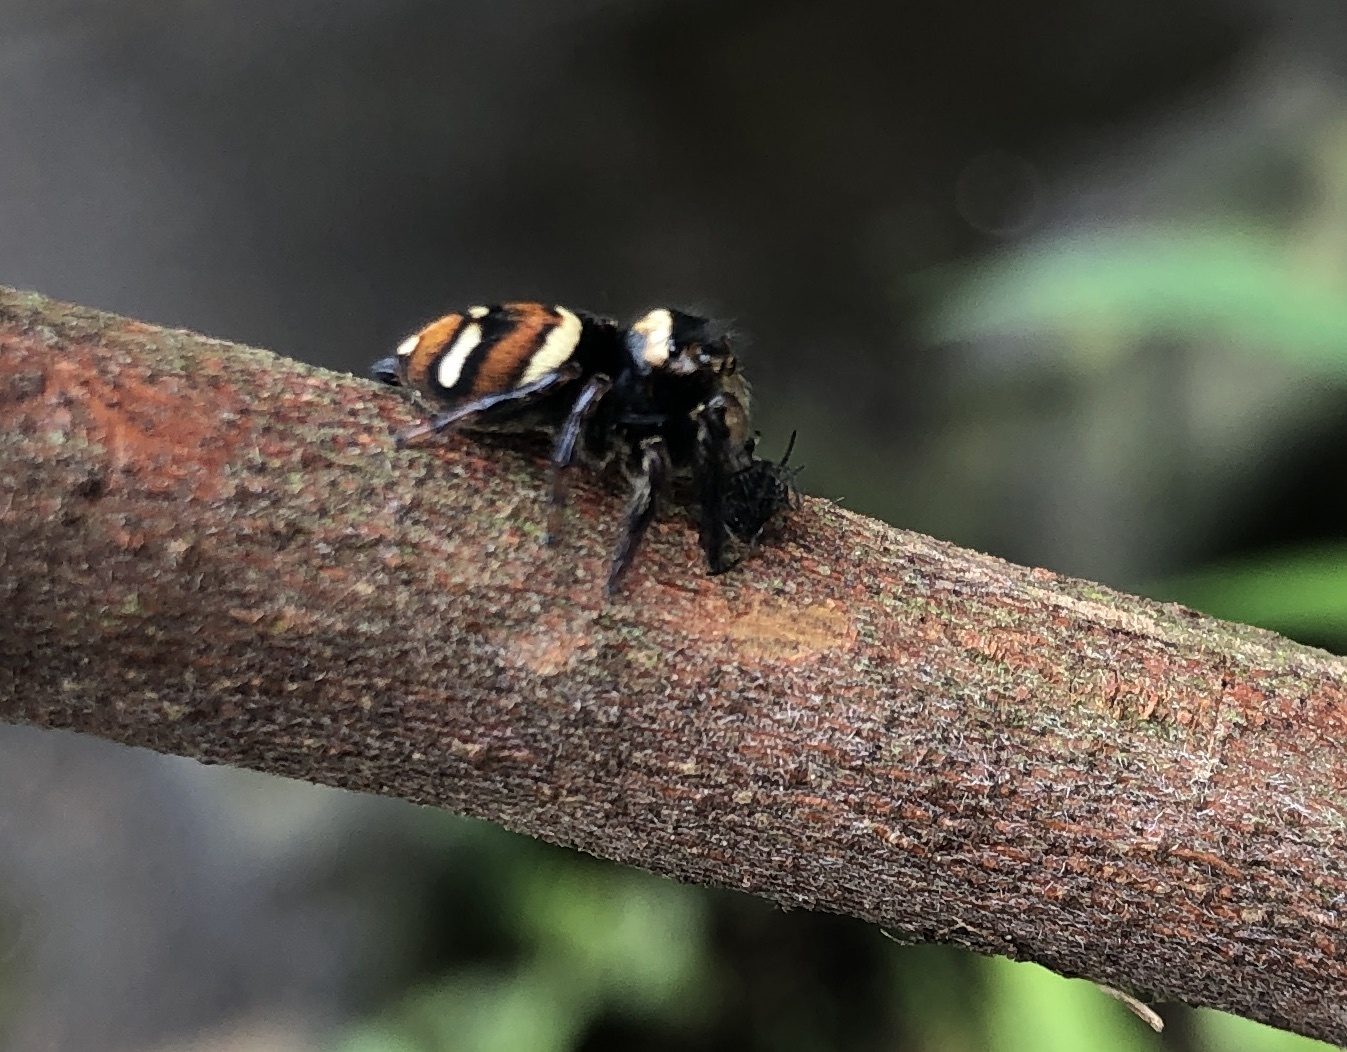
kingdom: Animalia
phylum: Arthropoda
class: Arachnida
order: Araneae
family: Salticidae
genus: Ptocasius
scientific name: Ptocasius strupifer
